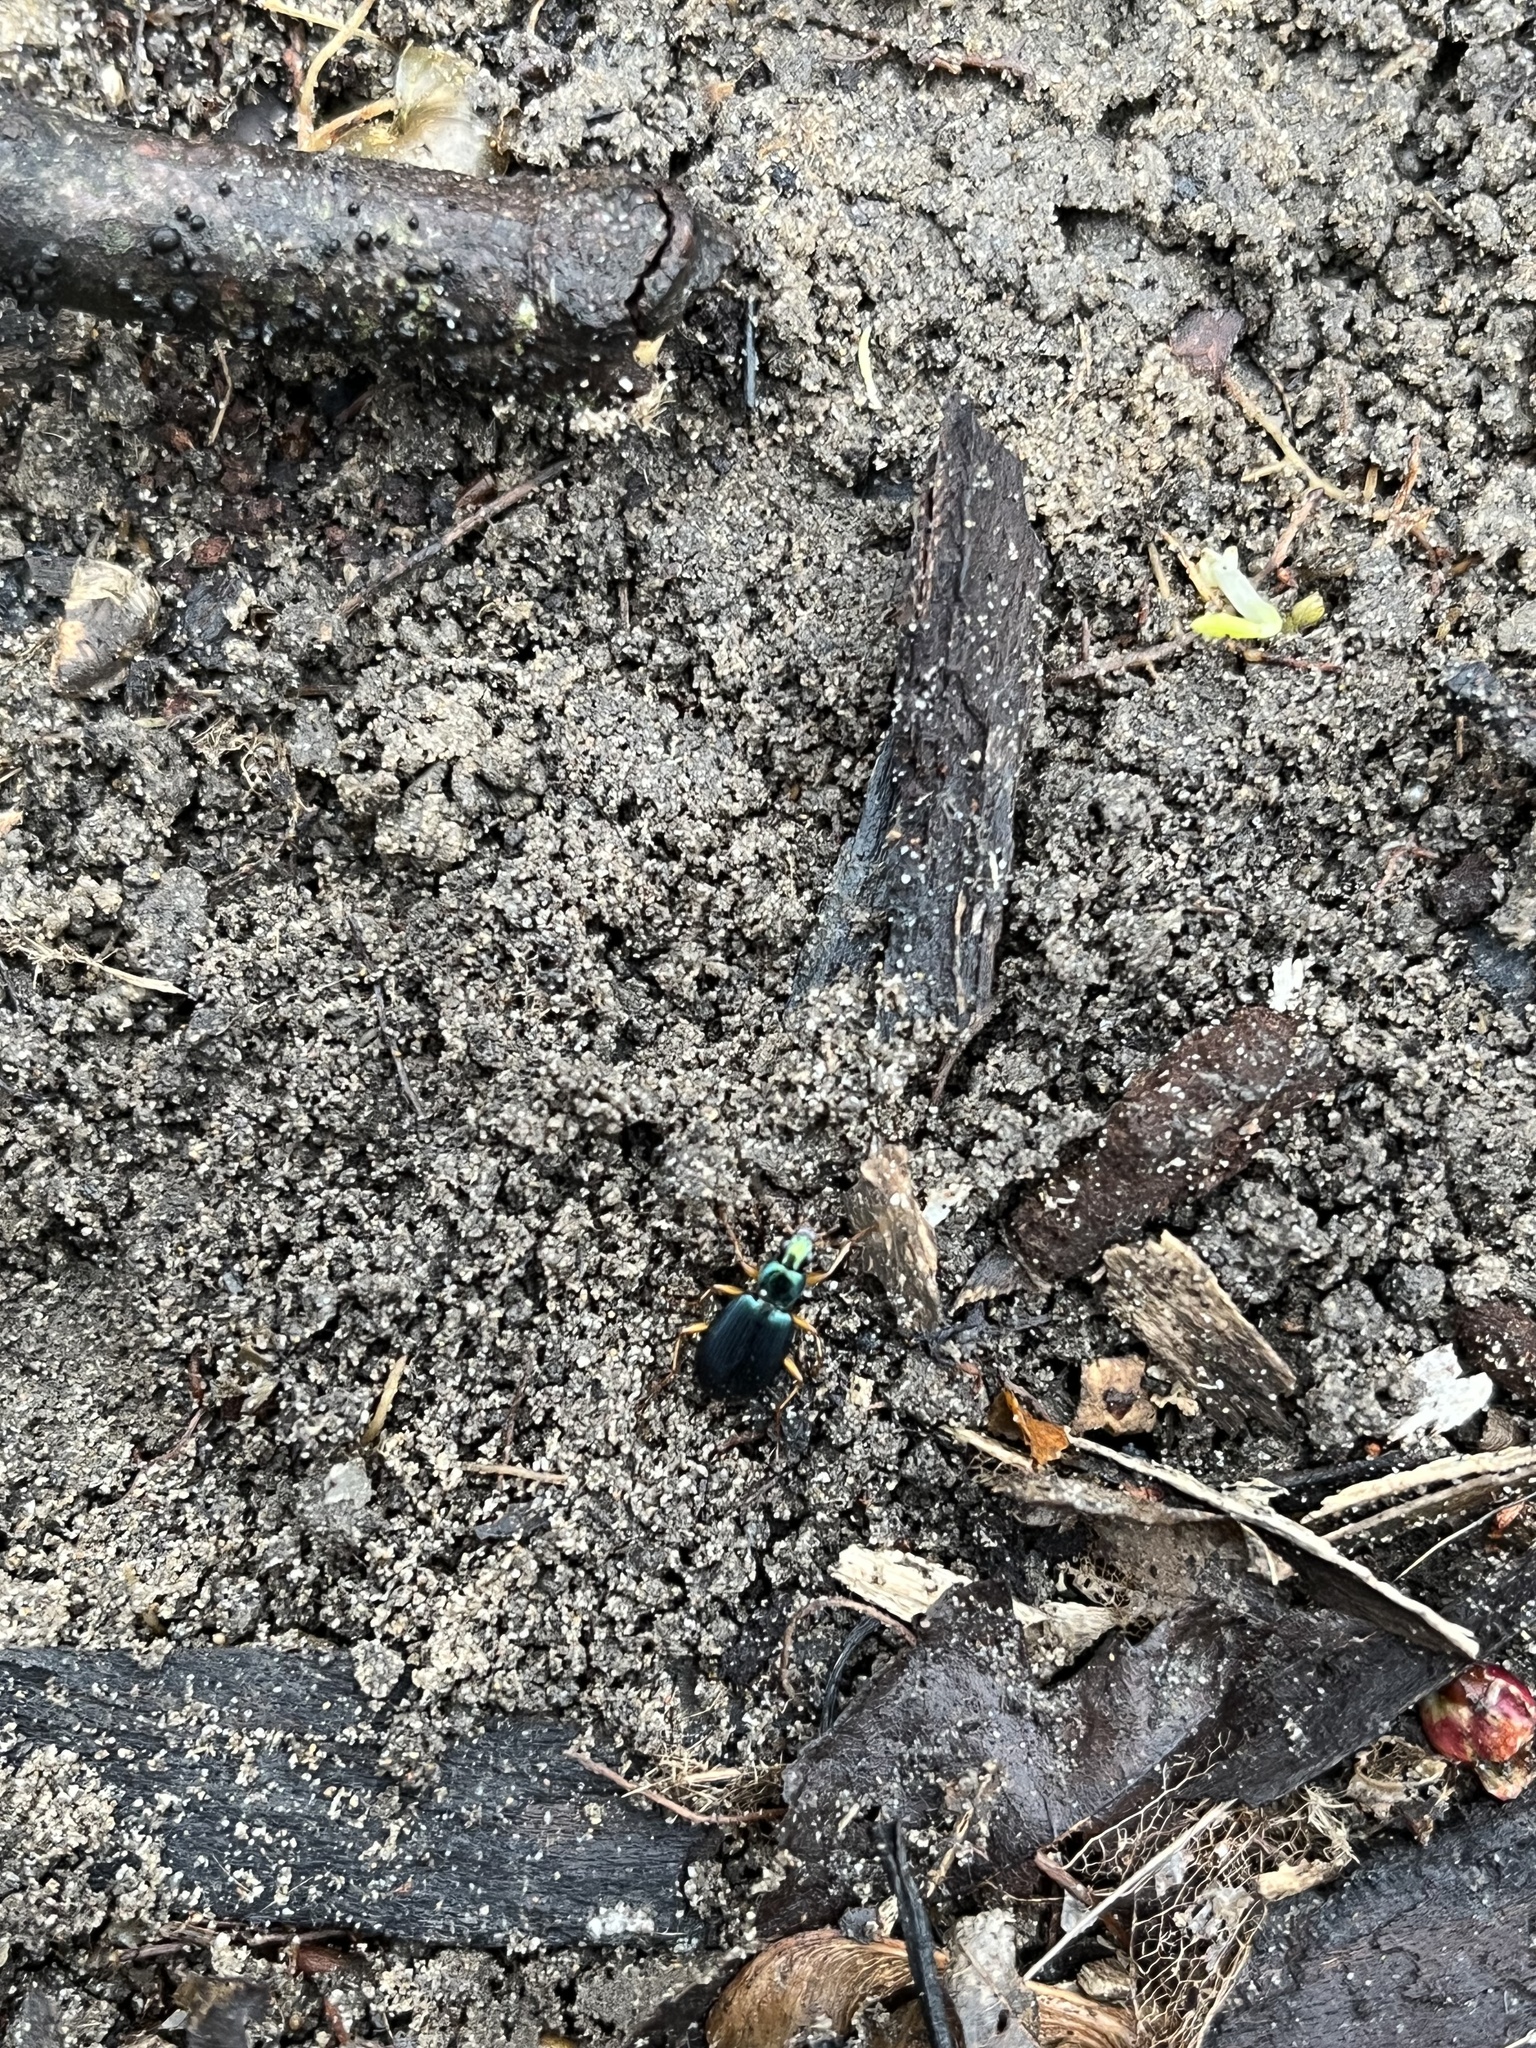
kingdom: Animalia
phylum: Arthropoda
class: Insecta
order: Coleoptera
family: Carabidae
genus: Agonum
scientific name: Agonum extensicolle
